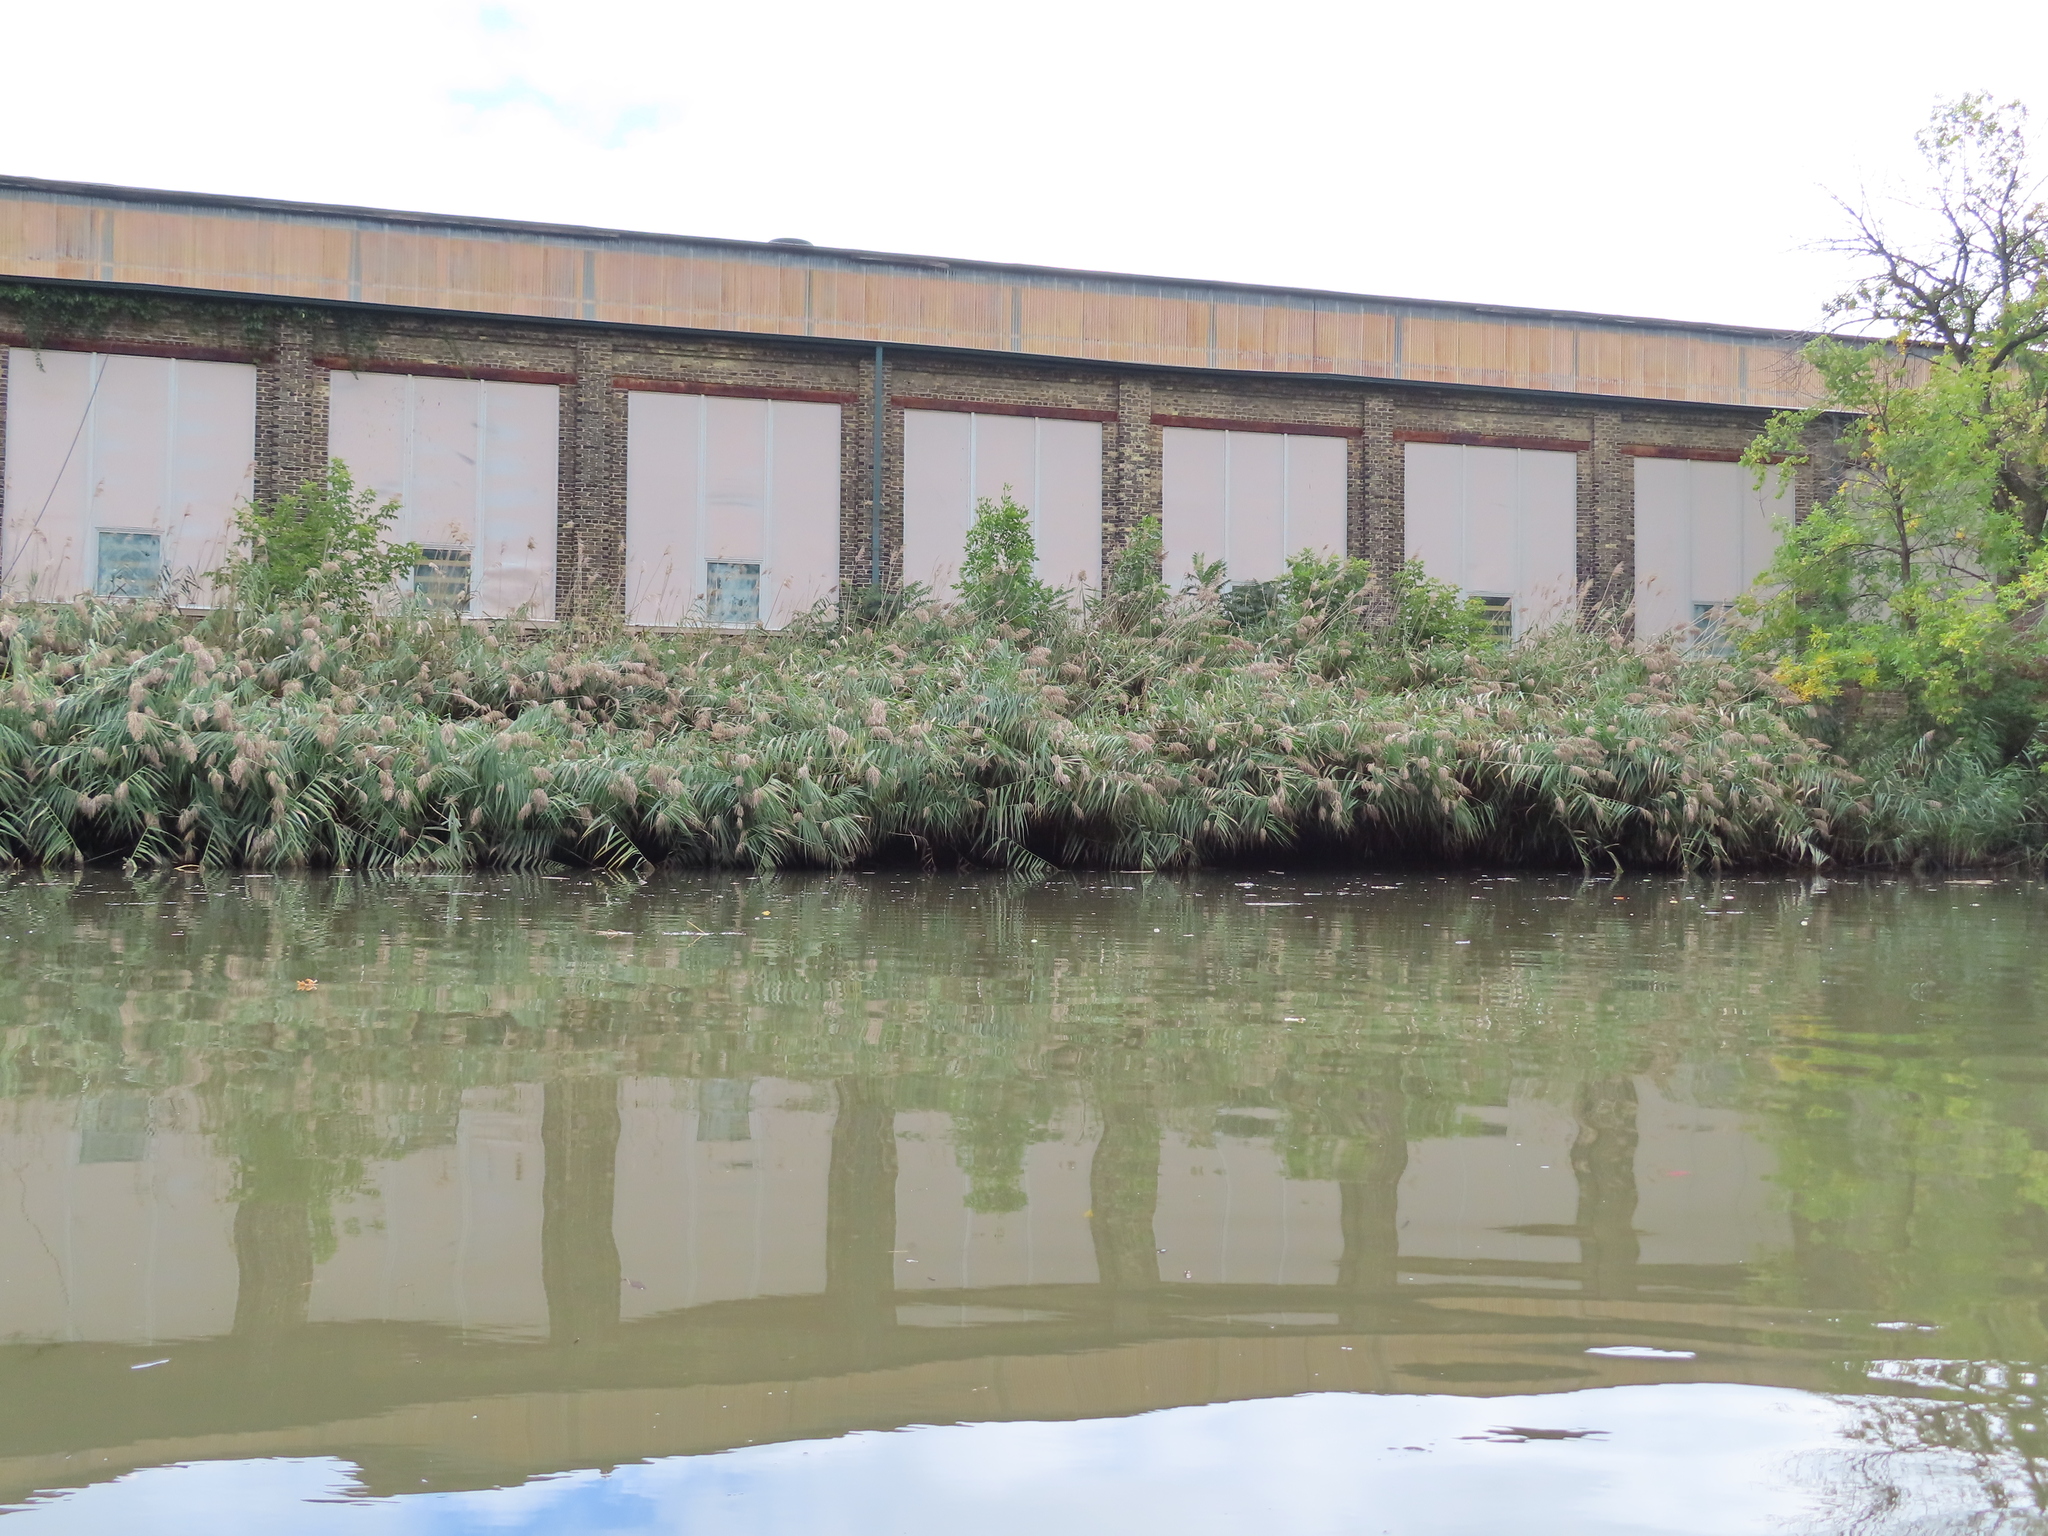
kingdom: Plantae
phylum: Tracheophyta
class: Liliopsida
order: Poales
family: Poaceae
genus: Phragmites
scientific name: Phragmites australis
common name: Common reed
